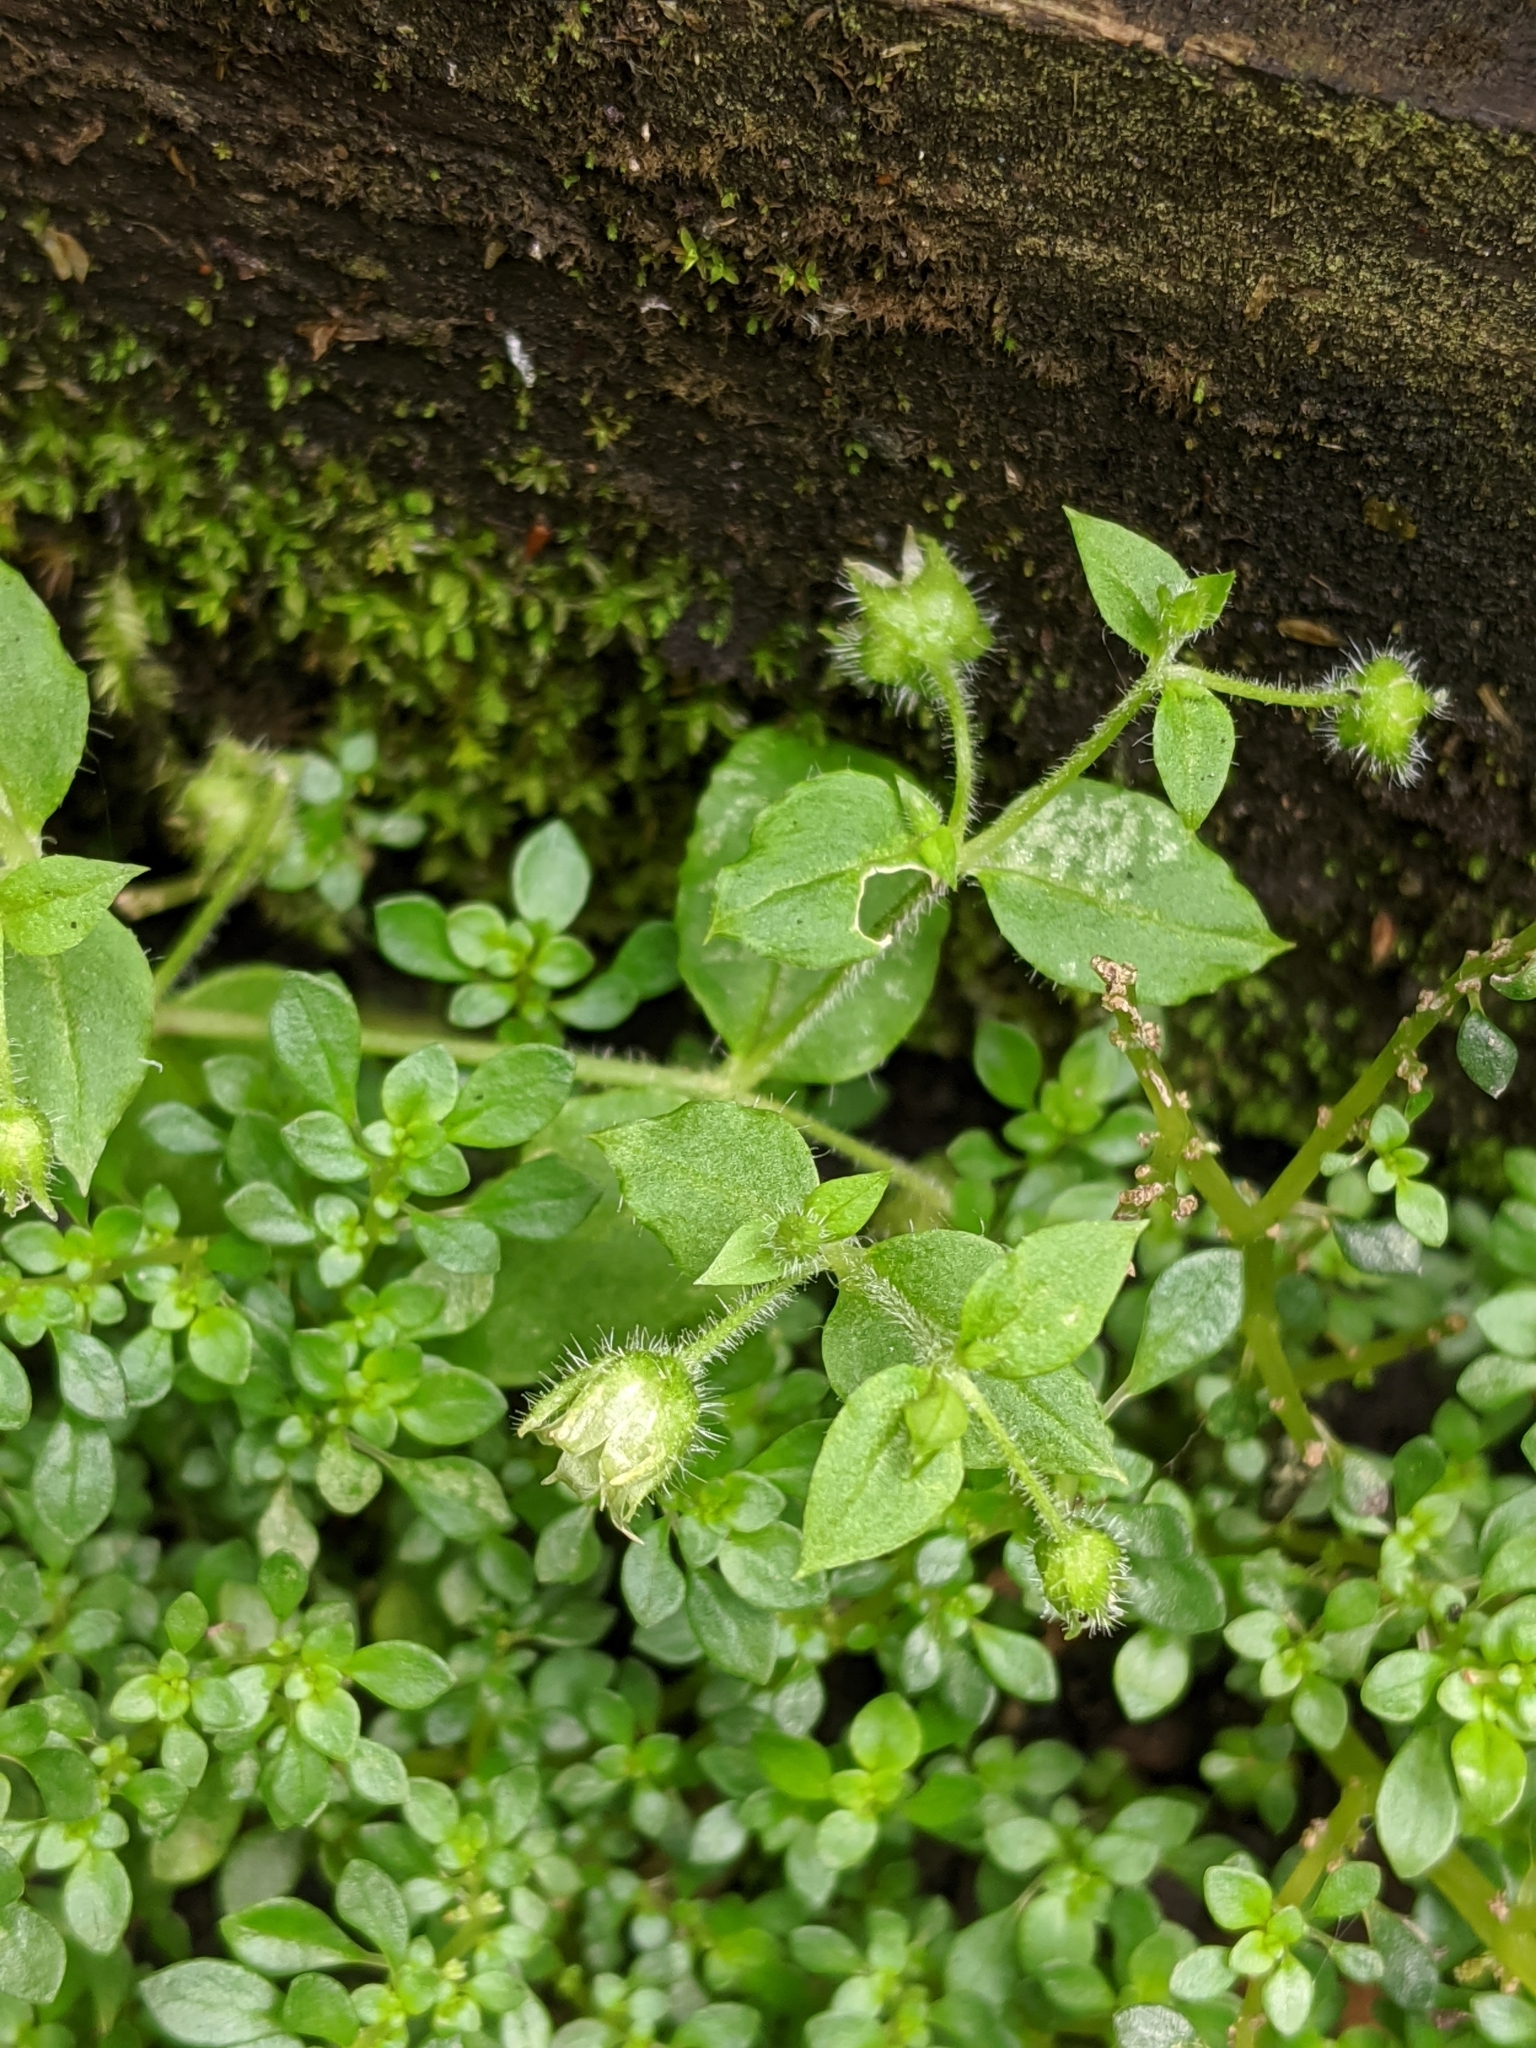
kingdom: Plantae
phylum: Tracheophyta
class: Magnoliopsida
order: Caryophyllales
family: Caryophyllaceae
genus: Stellaria
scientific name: Stellaria aquatica
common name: Water chickweed
